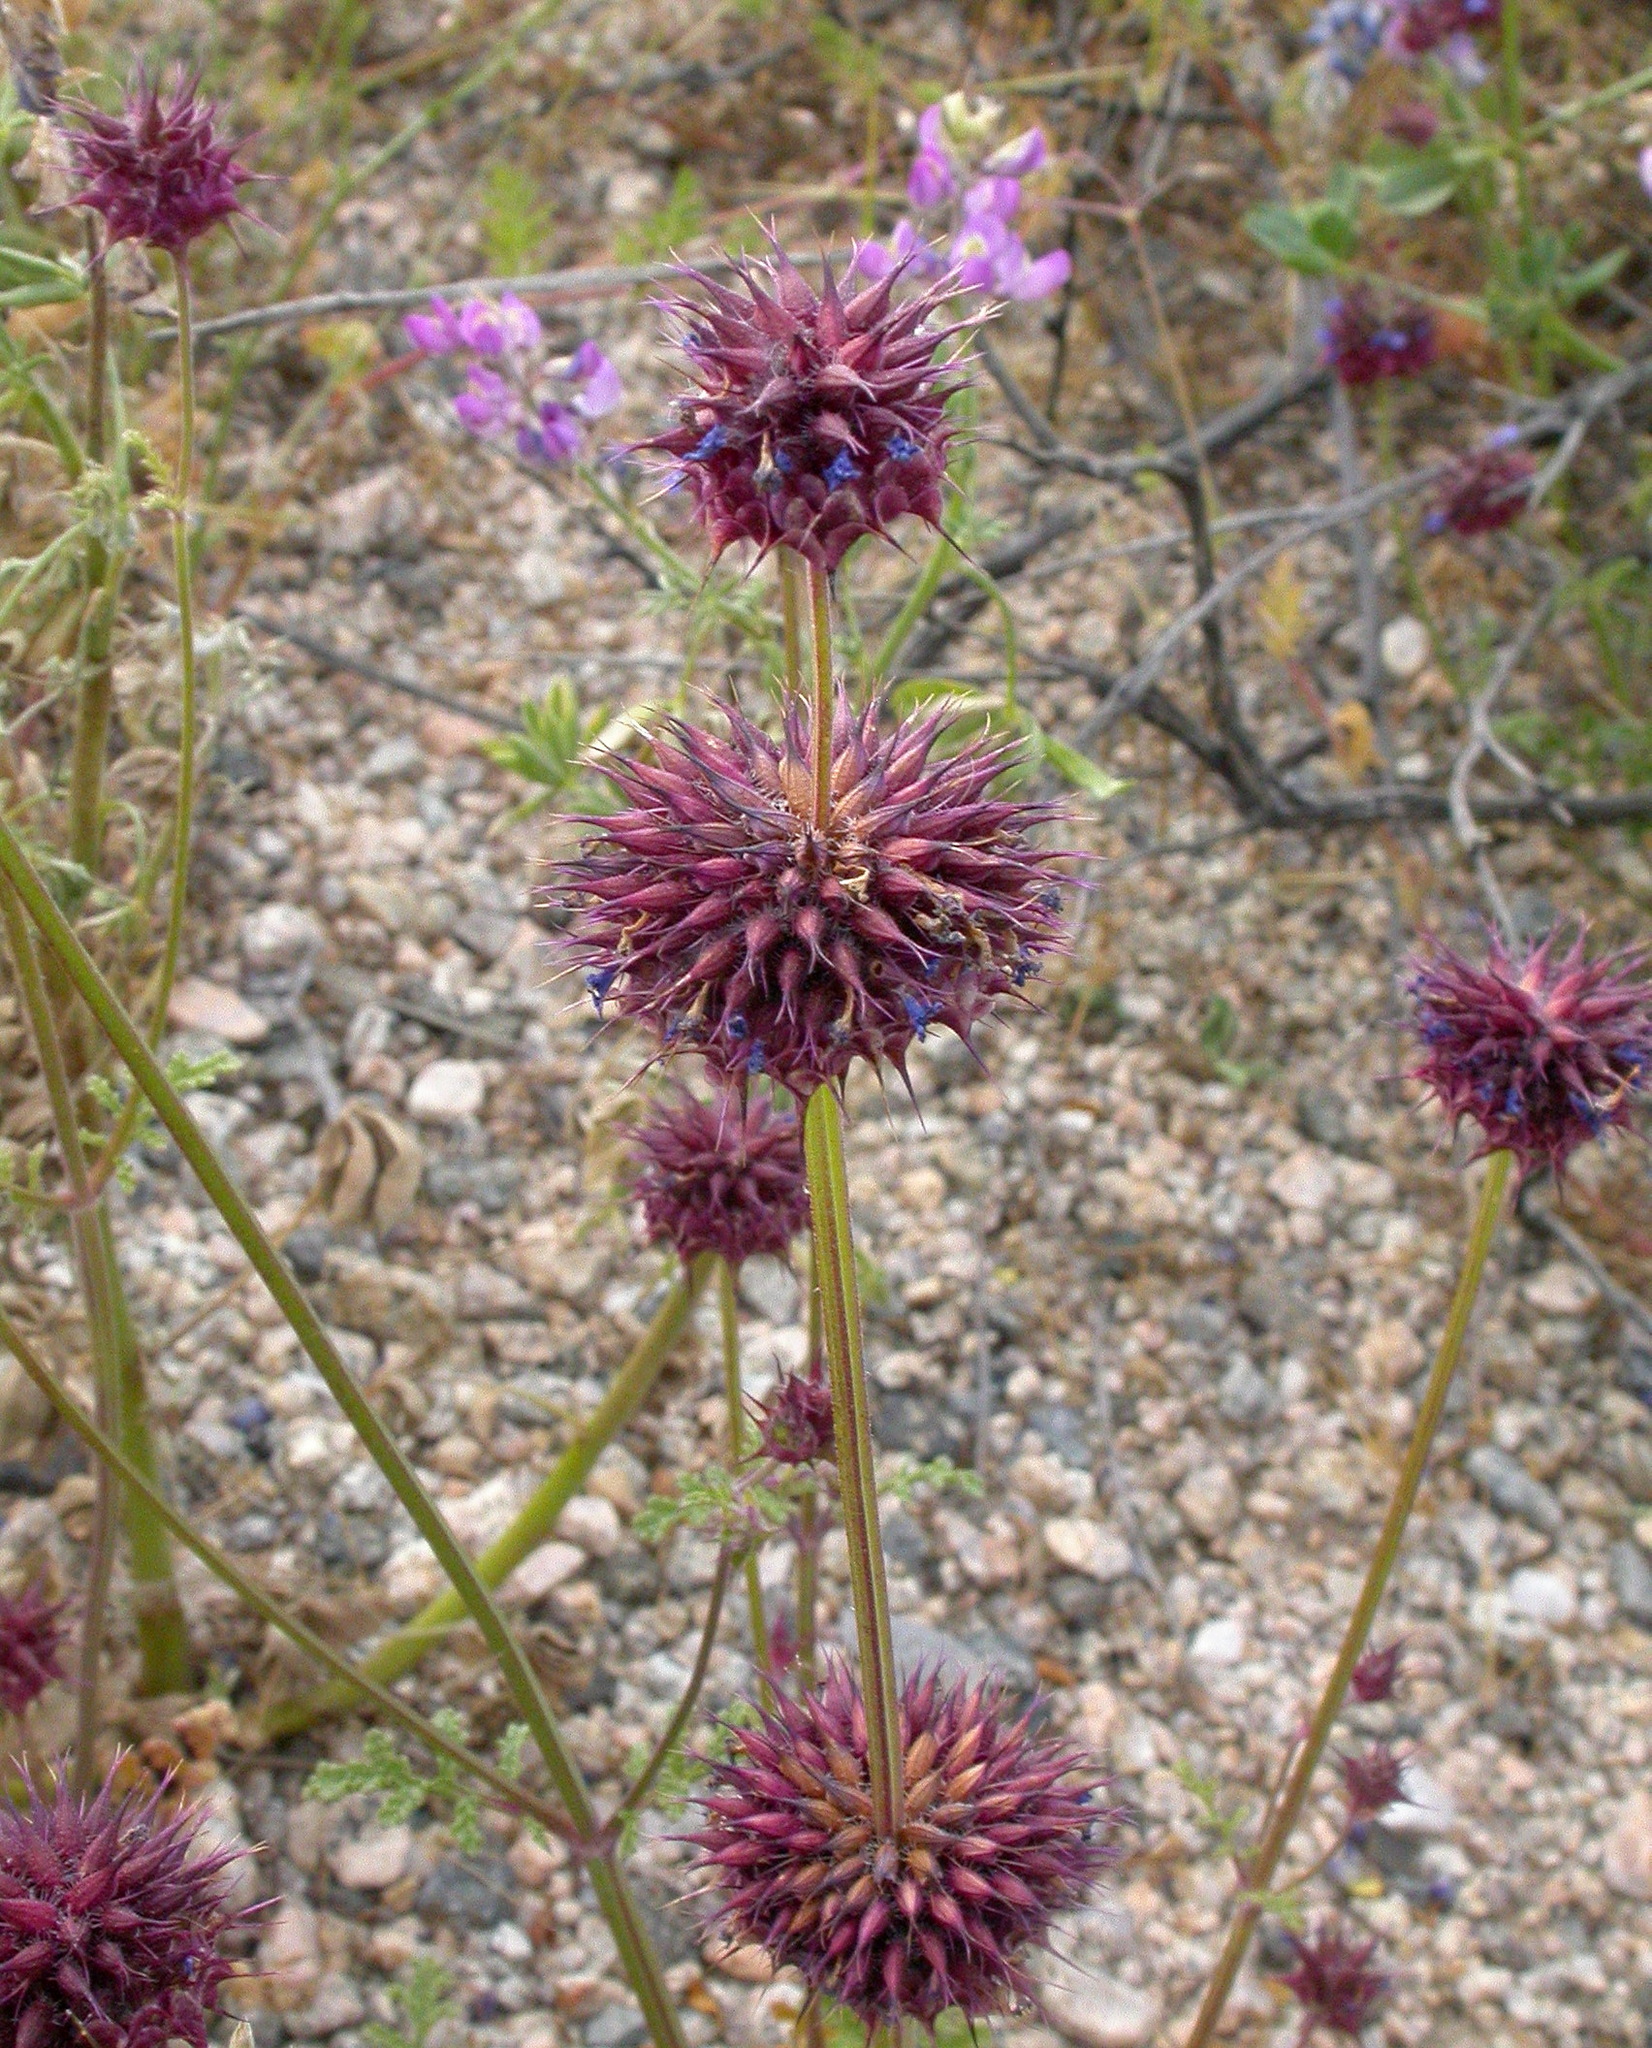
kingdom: Plantae
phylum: Tracheophyta
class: Magnoliopsida
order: Lamiales
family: Lamiaceae
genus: Salvia
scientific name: Salvia columbariae
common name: Chia
